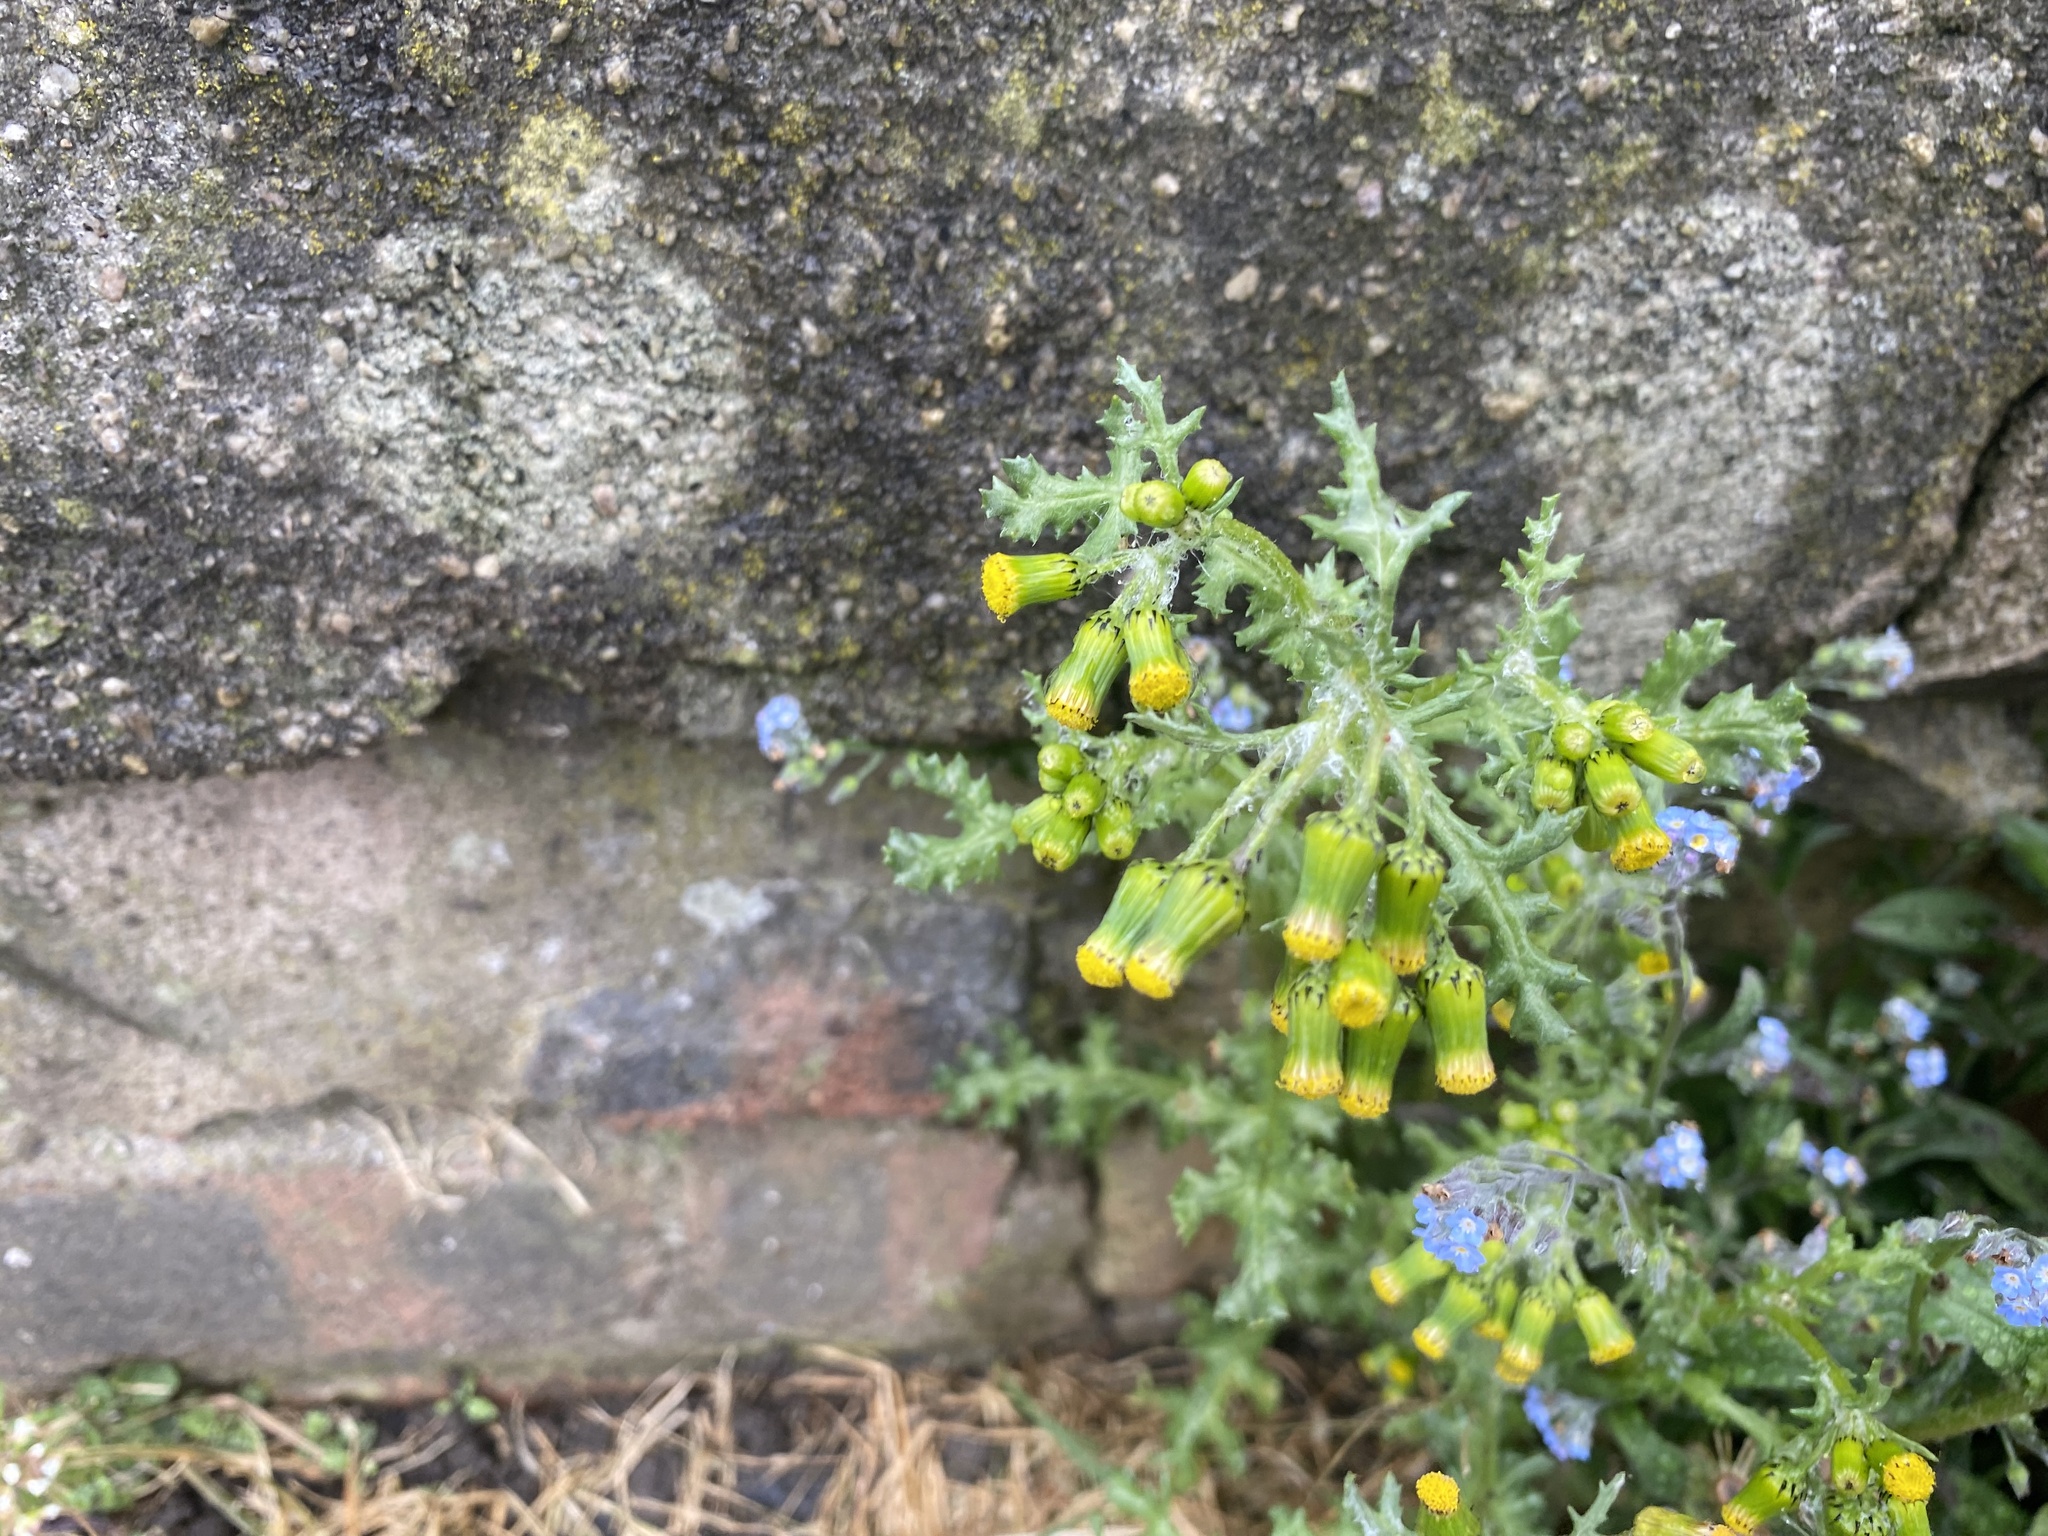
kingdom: Plantae
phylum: Tracheophyta
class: Magnoliopsida
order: Asterales
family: Asteraceae
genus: Senecio
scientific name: Senecio vulgaris
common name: Old-man-in-the-spring
